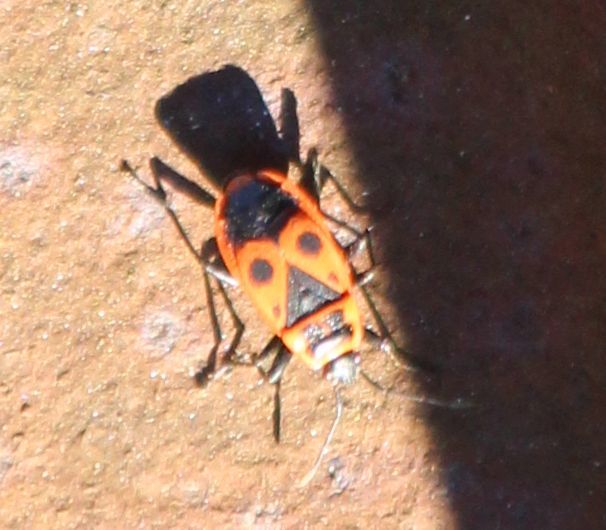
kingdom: Animalia
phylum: Arthropoda
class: Insecta
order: Hemiptera
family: Pyrrhocoridae
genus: Pyrrhocoris
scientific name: Pyrrhocoris apterus
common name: Firebug
